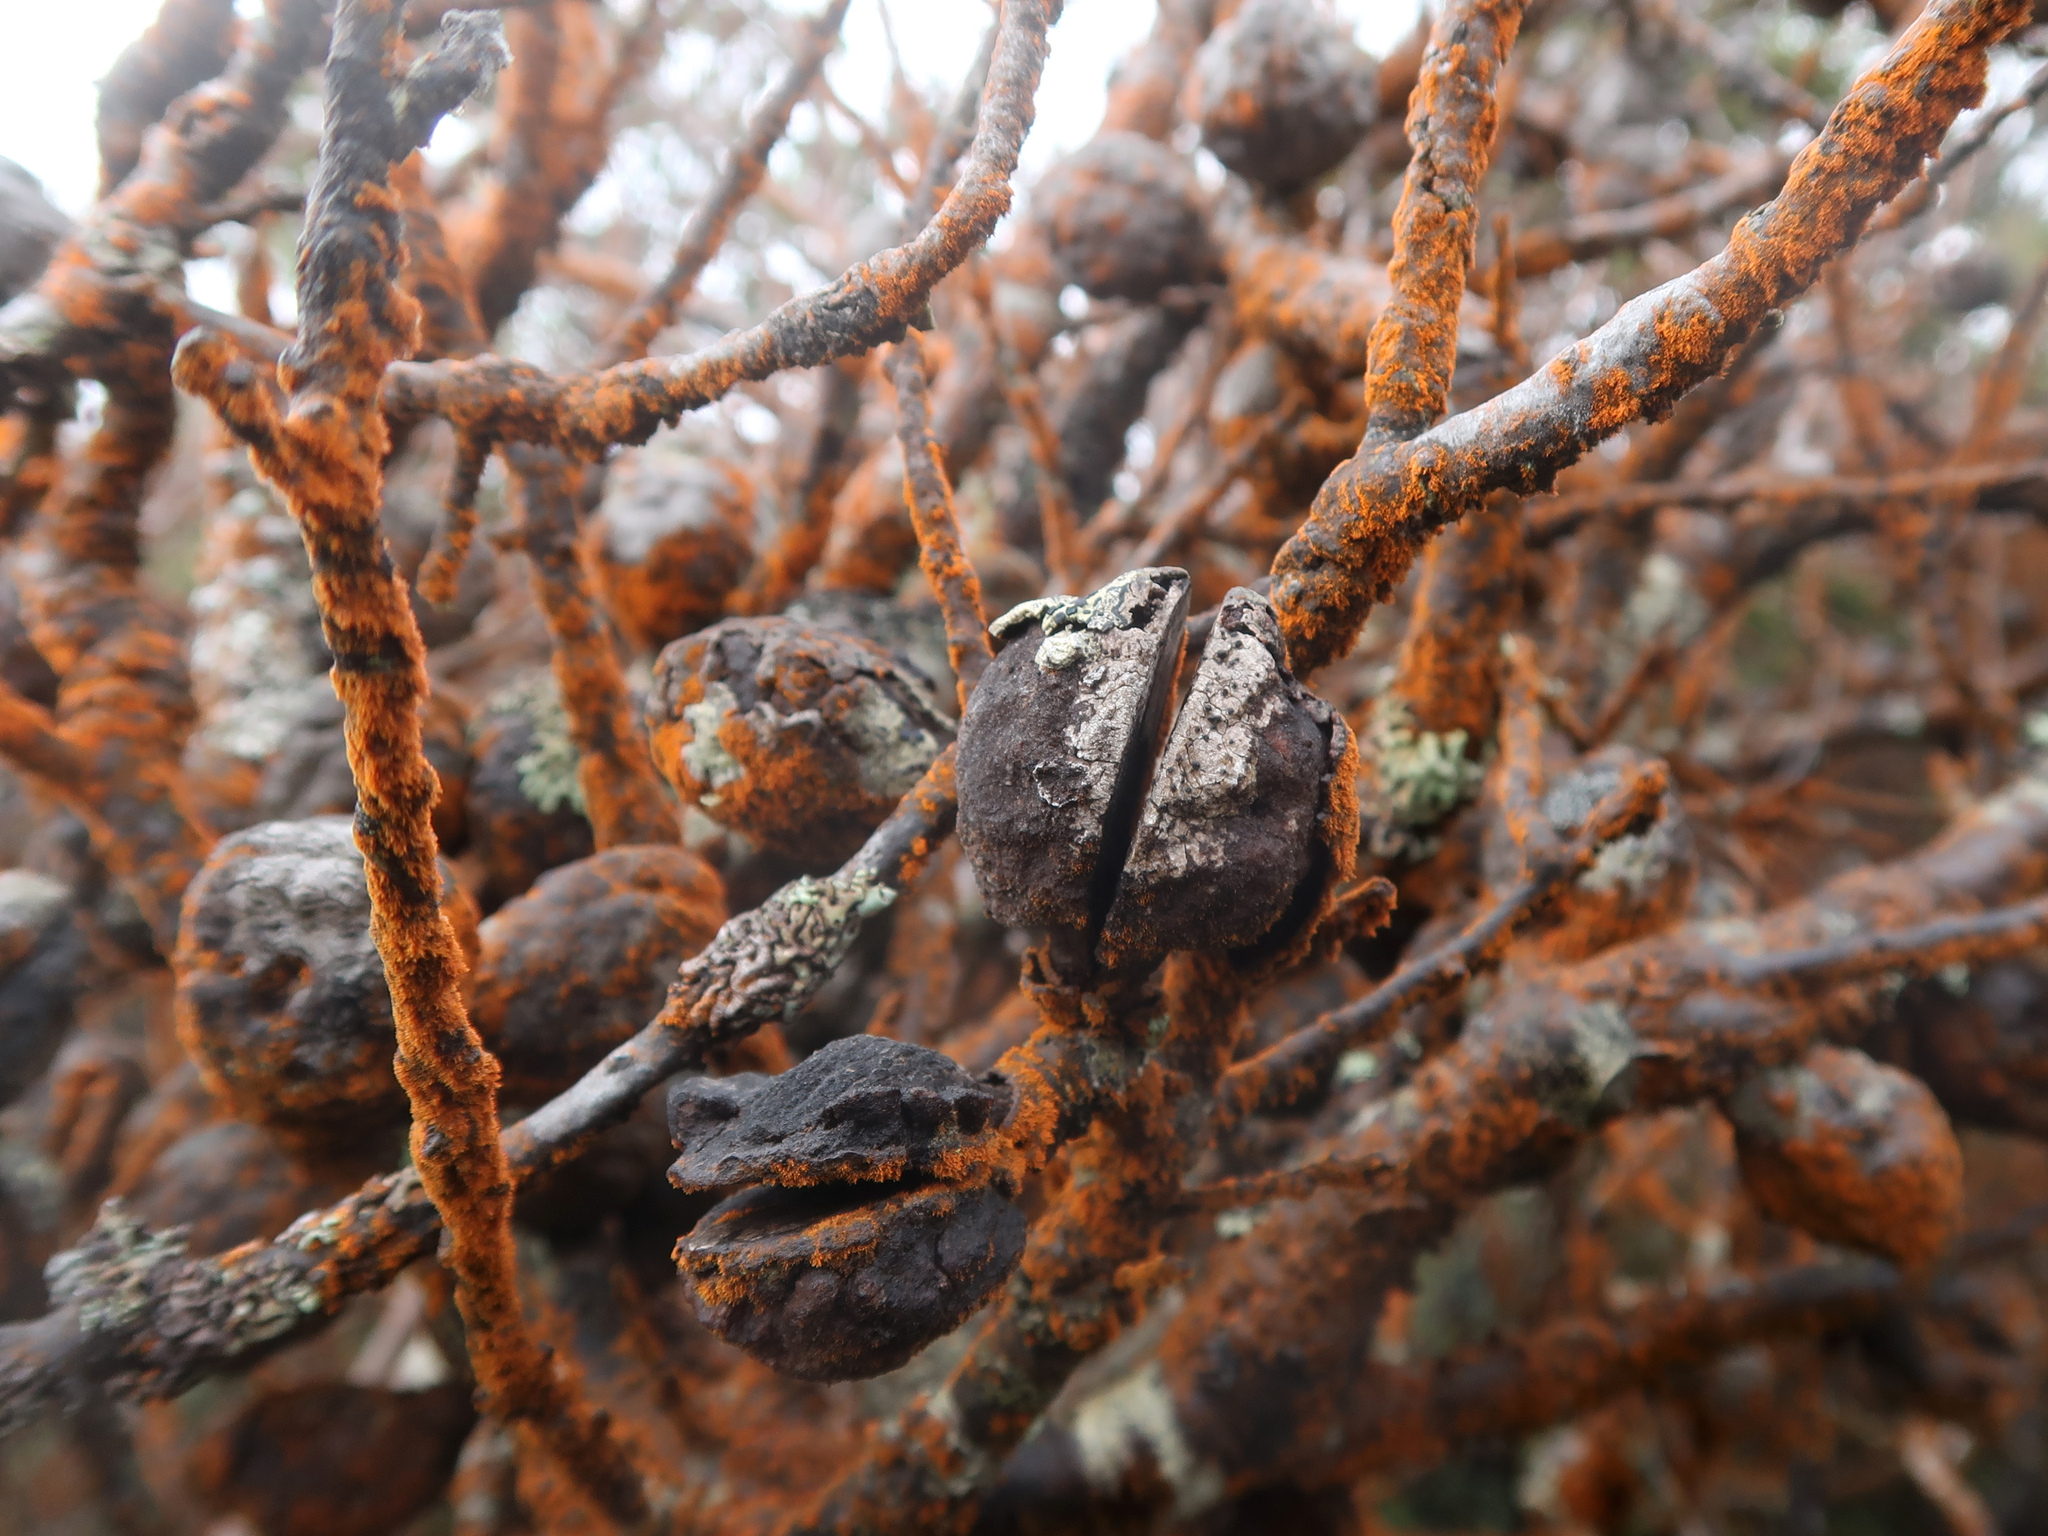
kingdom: Plantae
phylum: Tracheophyta
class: Magnoliopsida
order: Proteales
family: Proteaceae
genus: Hakea
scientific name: Hakea lissosperma
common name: Mountain needlewood
